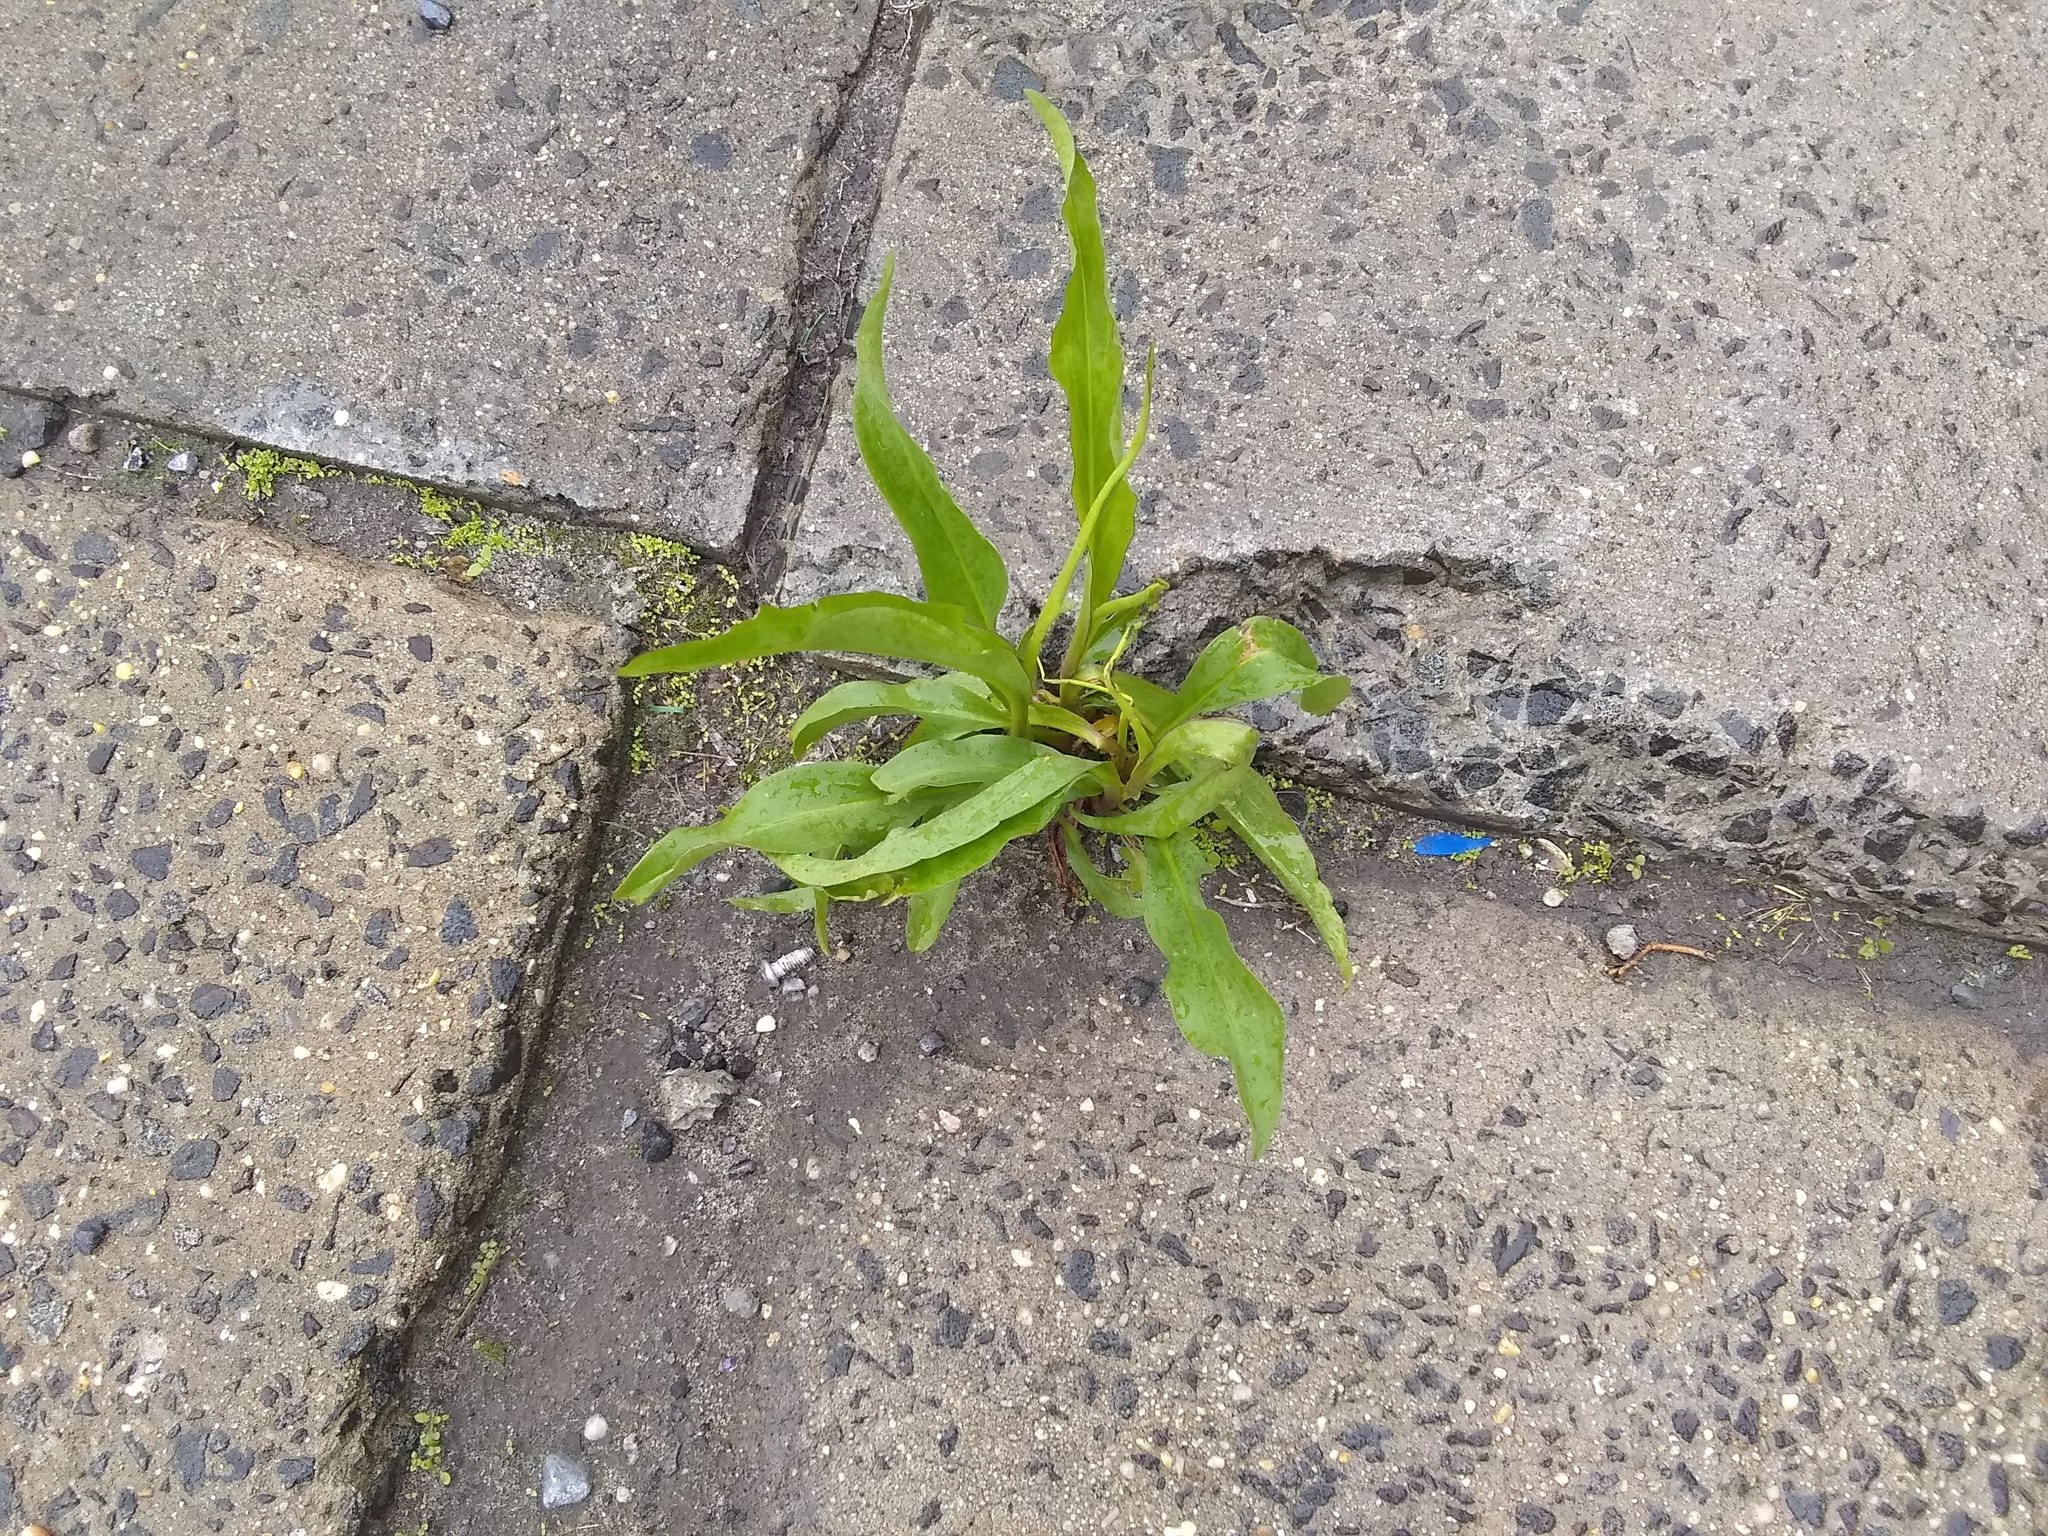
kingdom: Plantae
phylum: Tracheophyta
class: Magnoliopsida
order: Asterales
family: Asteraceae
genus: Solidago
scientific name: Solidago sempervirens
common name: Salt-marsh goldenrod
